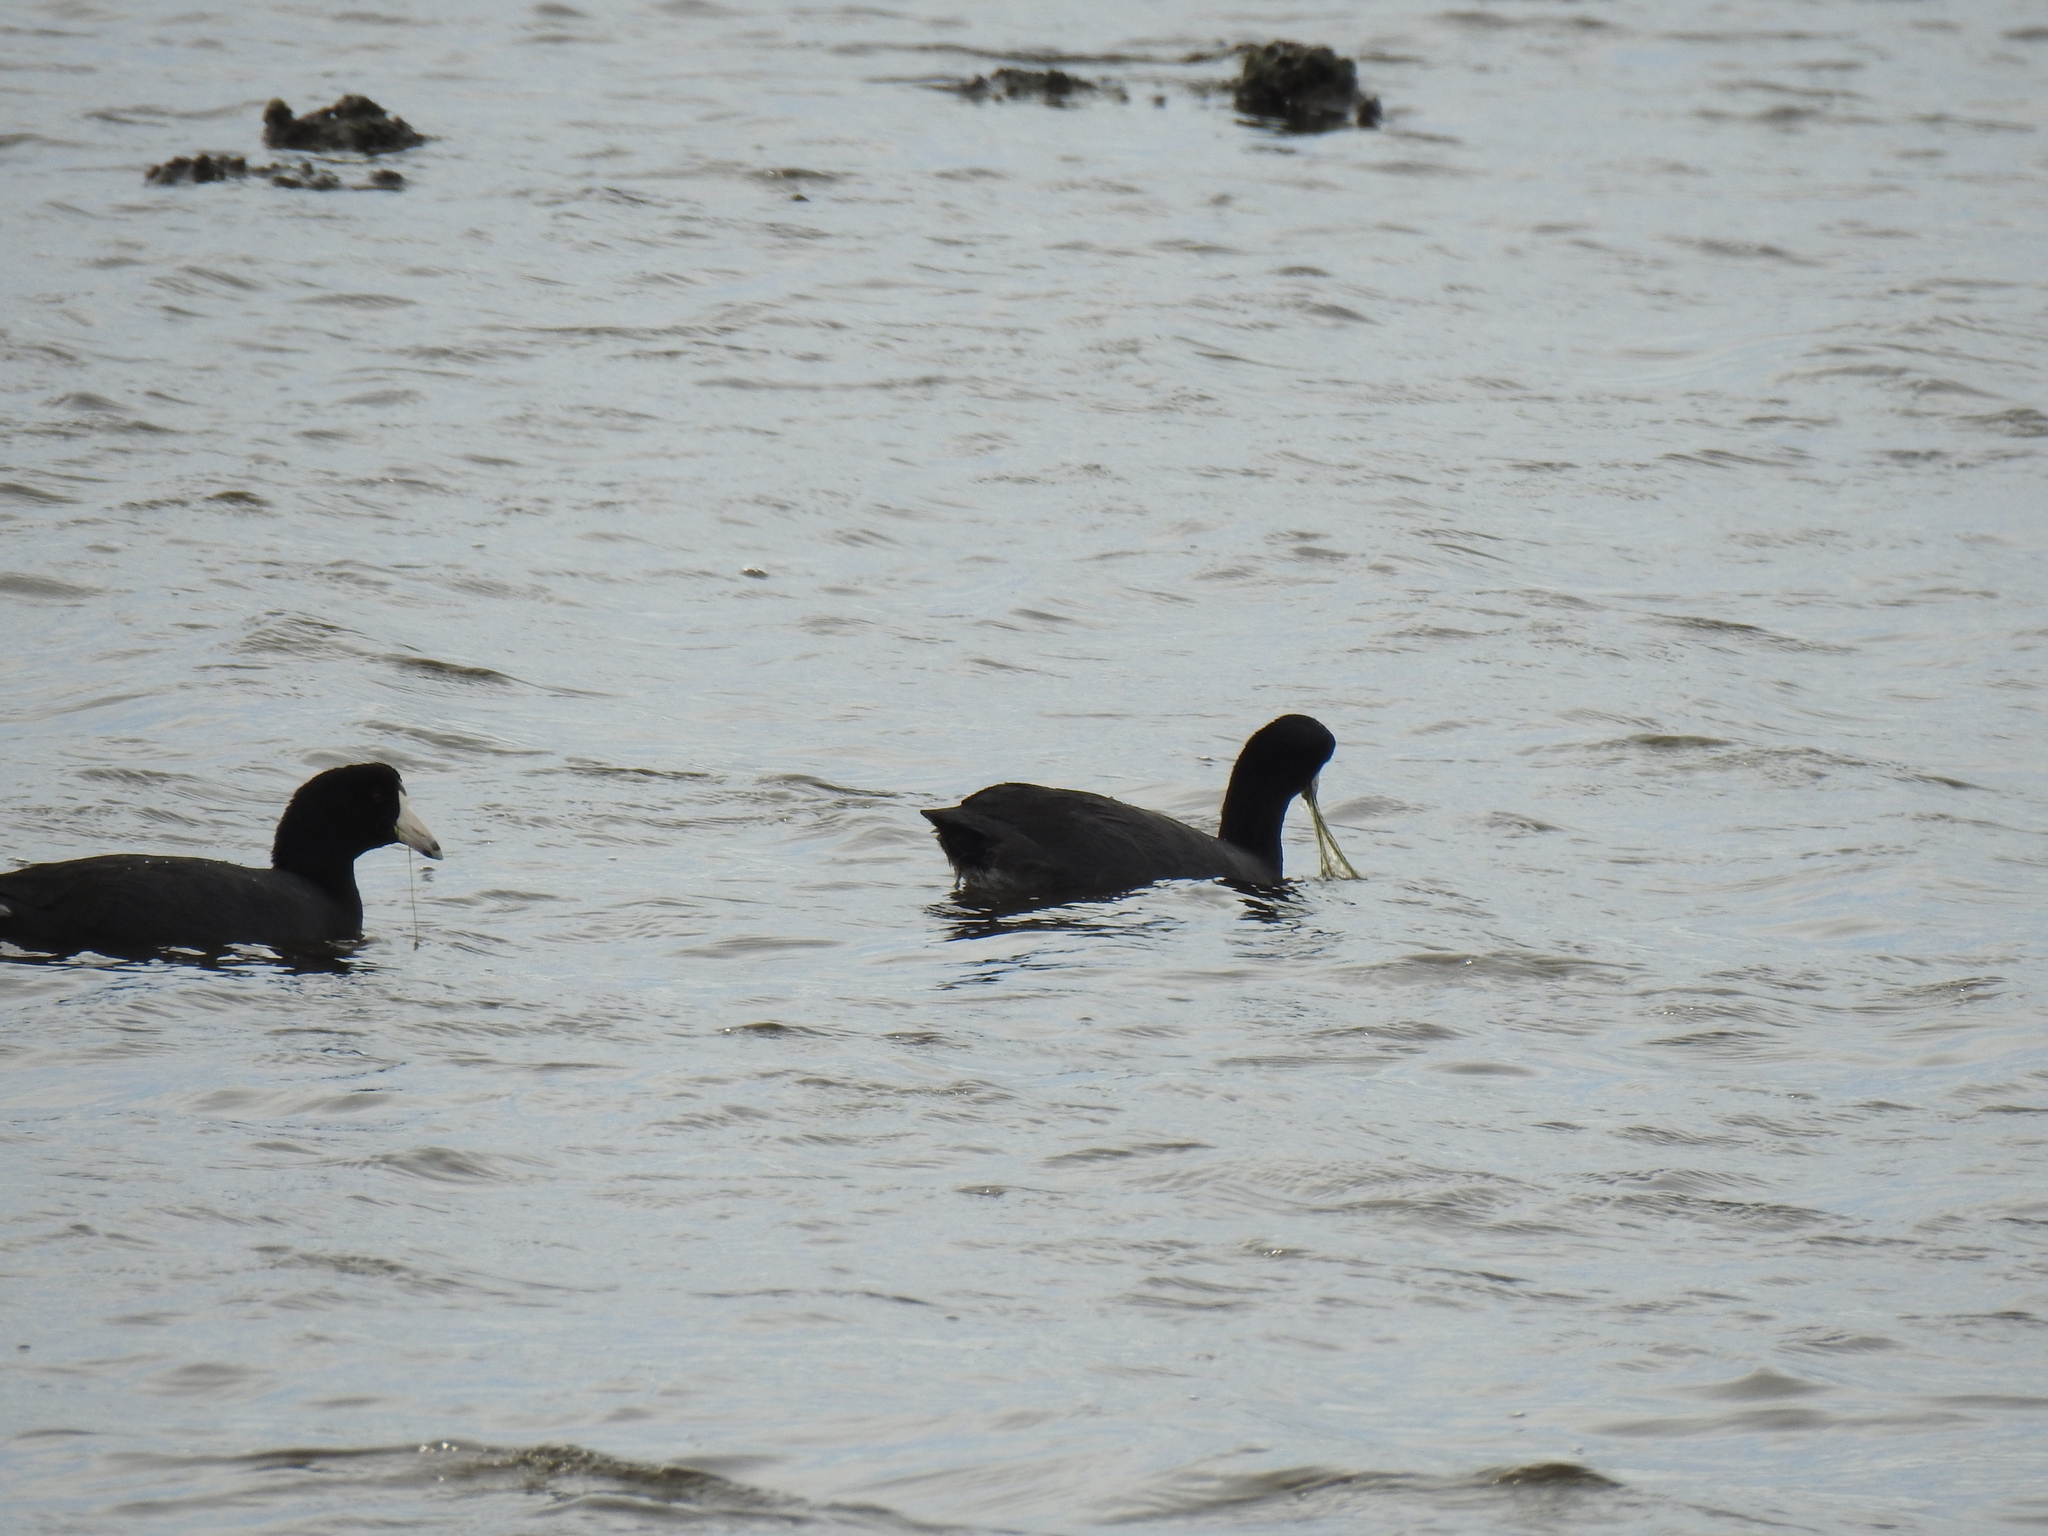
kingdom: Animalia
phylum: Chordata
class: Aves
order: Gruiformes
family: Rallidae
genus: Fulica
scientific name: Fulica americana
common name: American coot
